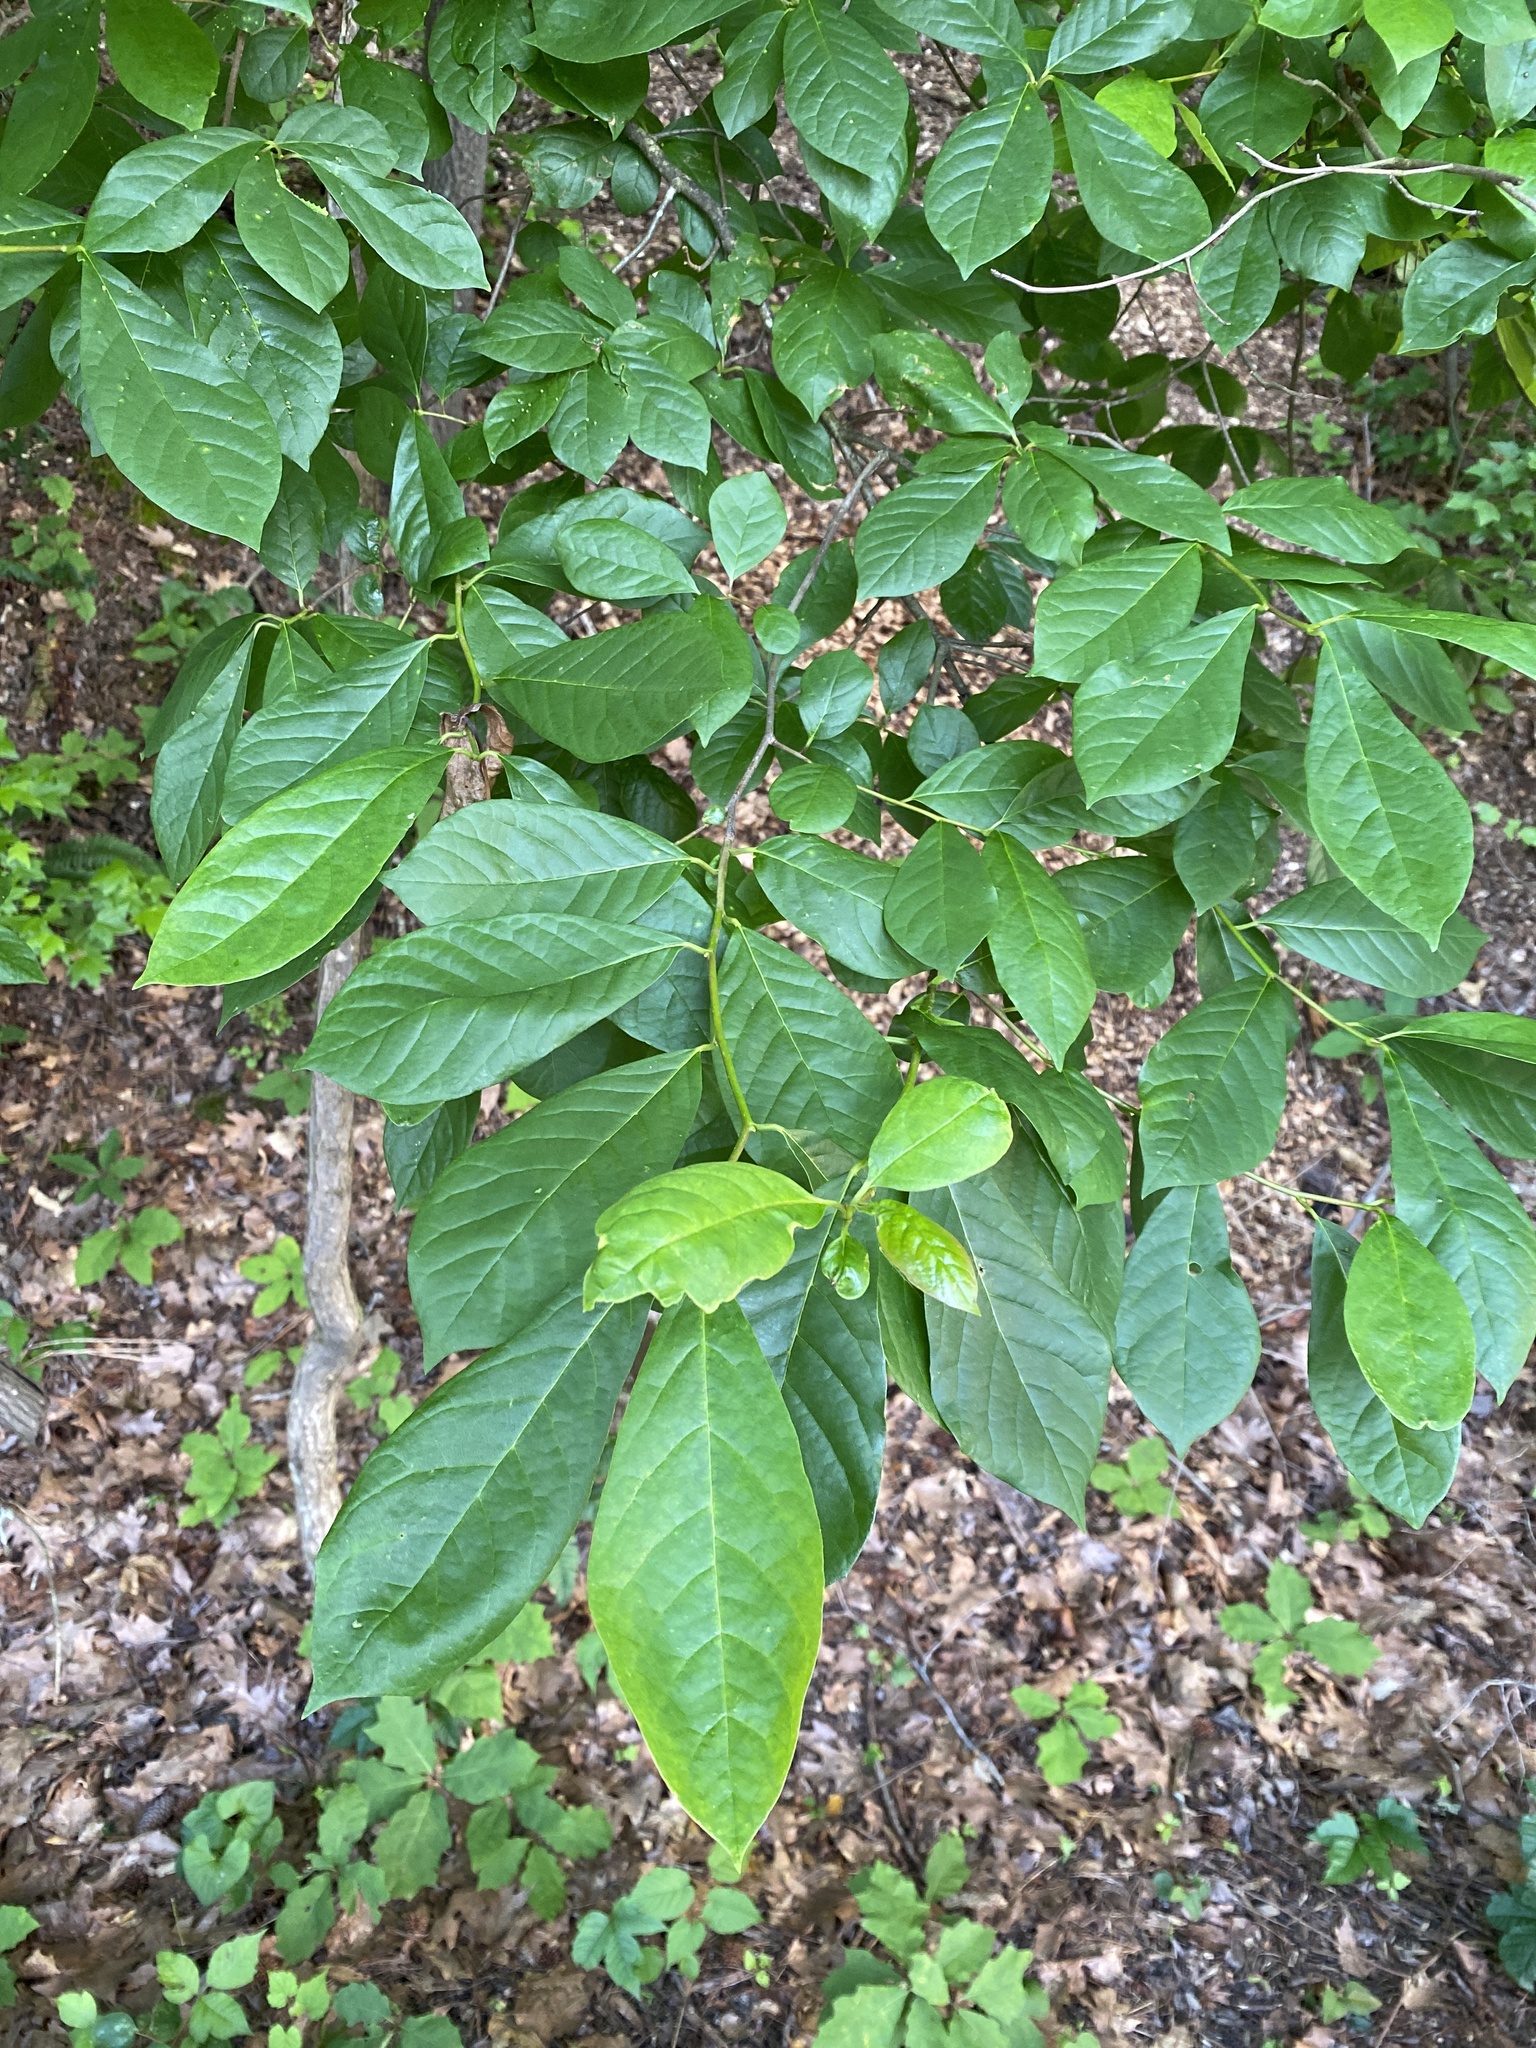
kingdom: Plantae
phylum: Tracheophyta
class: Magnoliopsida
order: Cornales
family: Nyssaceae
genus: Nyssa
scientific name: Nyssa sylvatica
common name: Black tupelo
